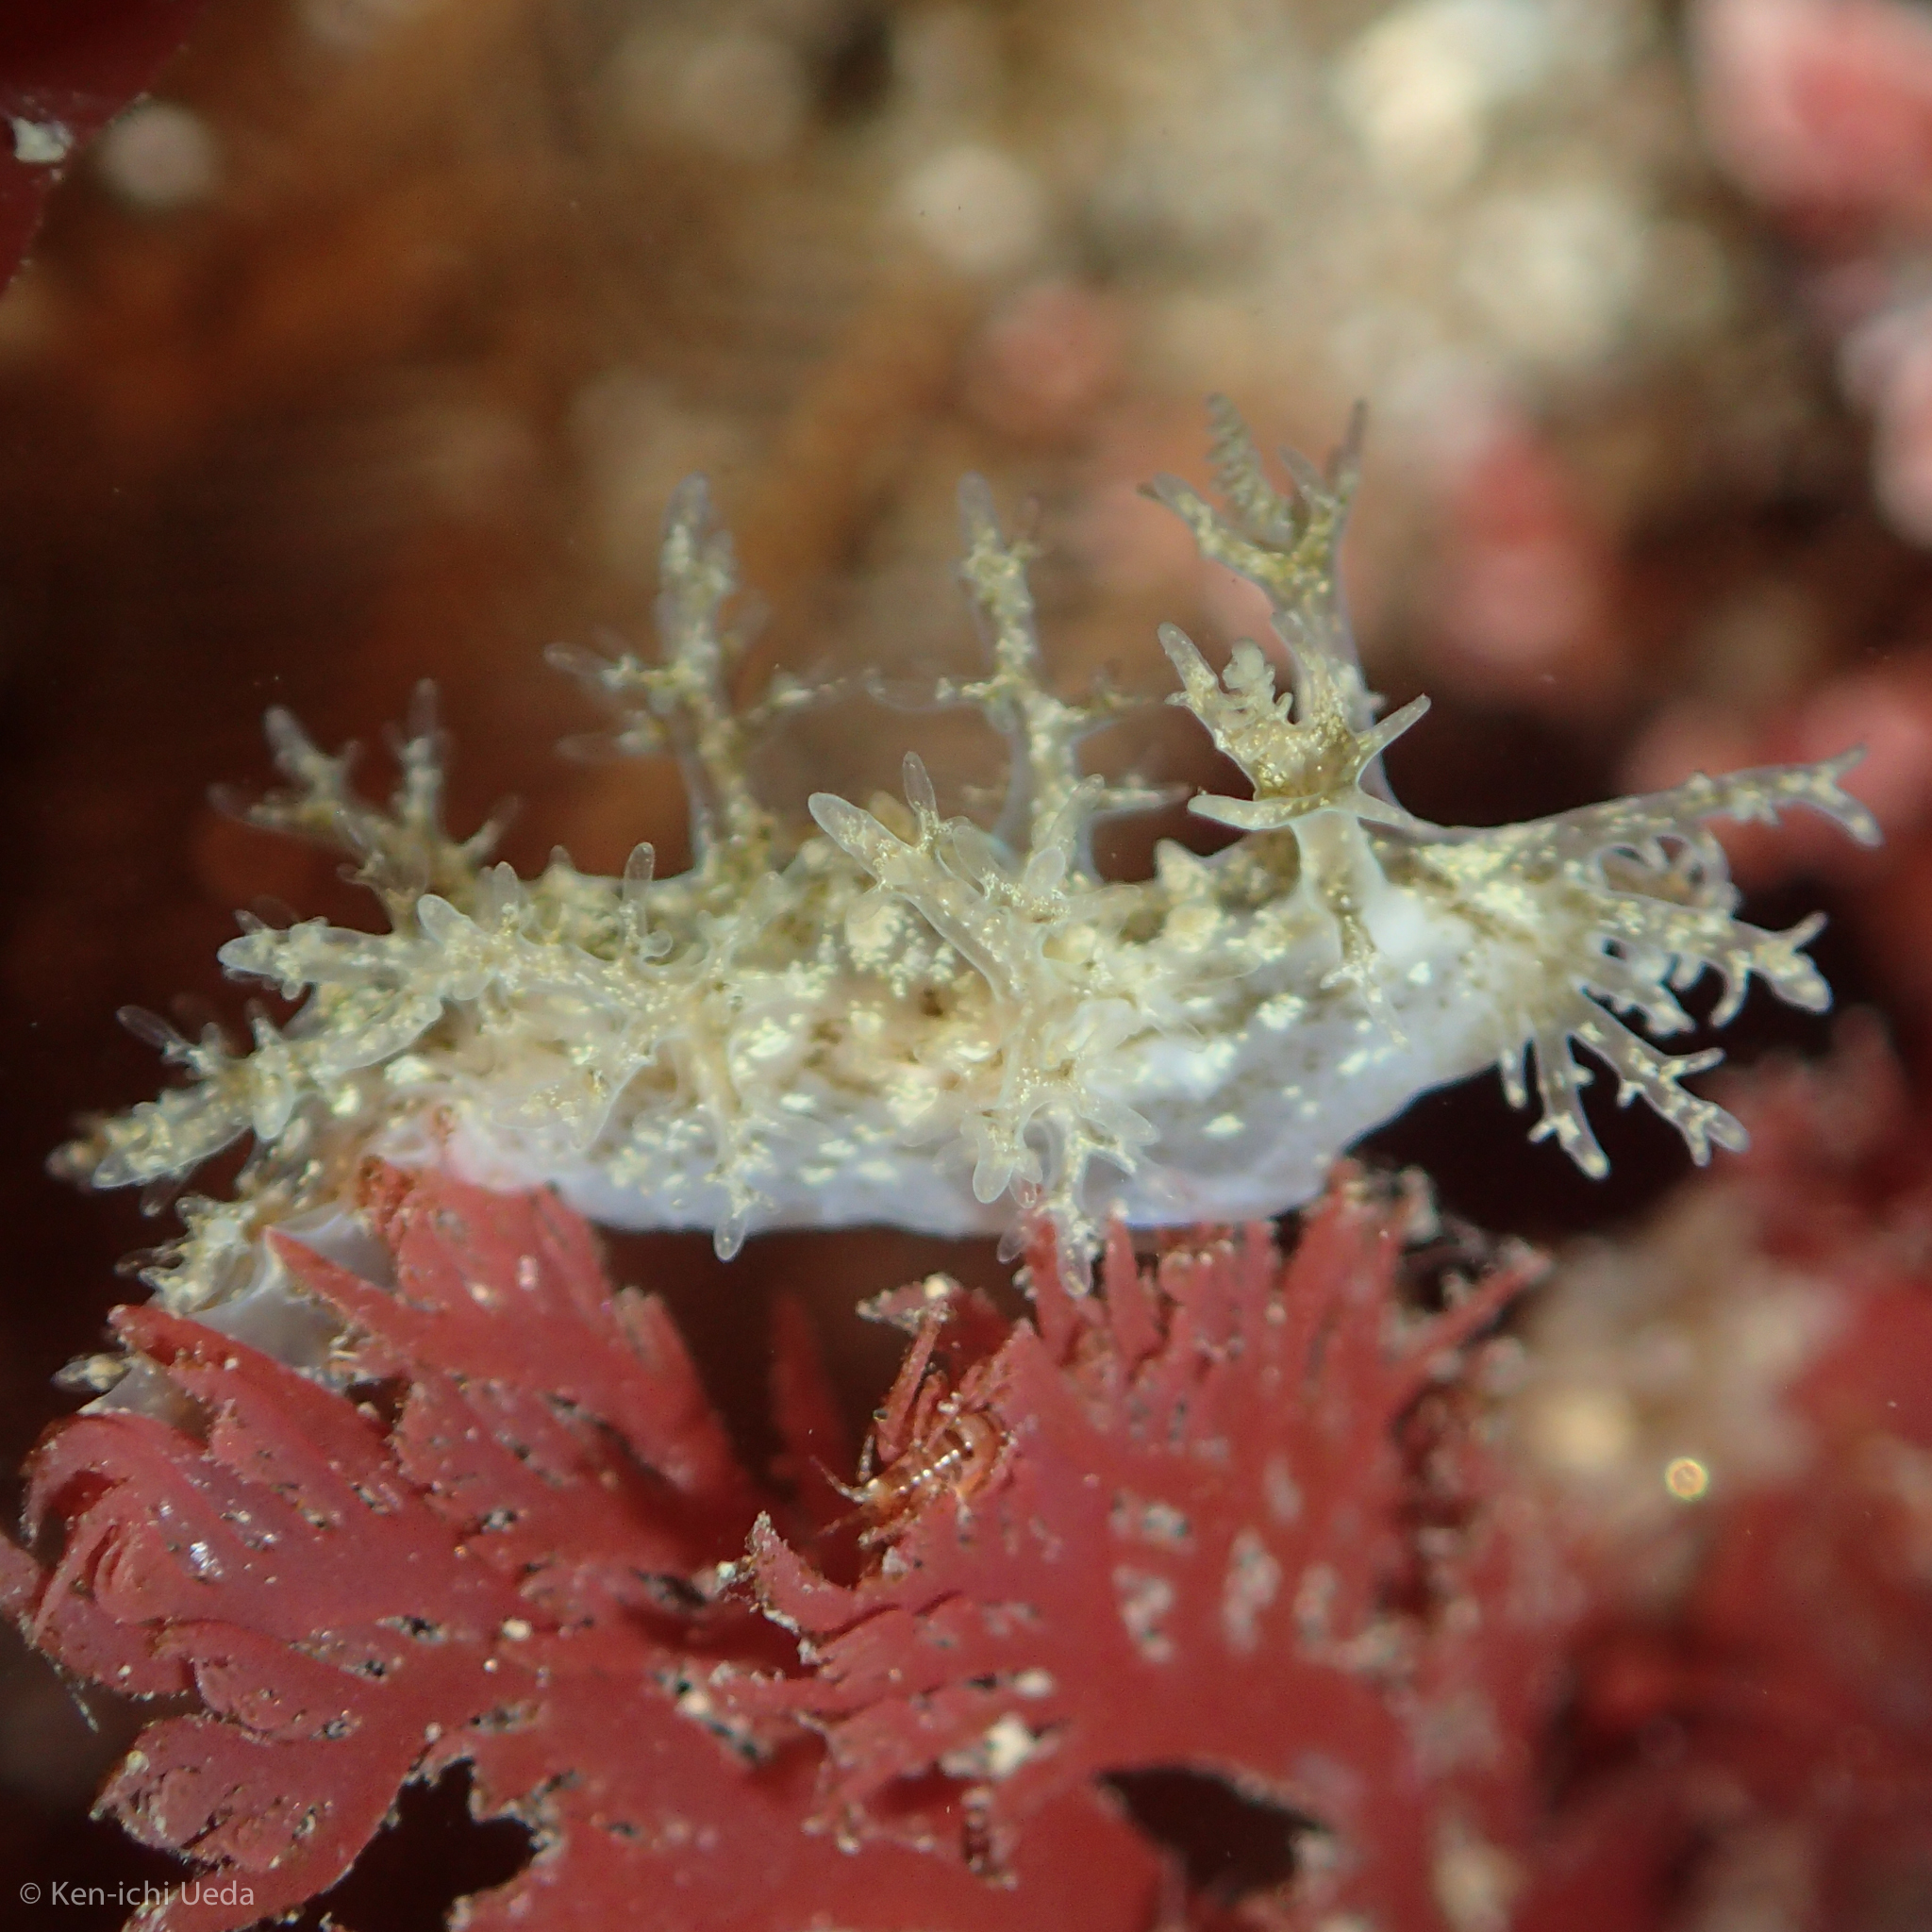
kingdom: Animalia
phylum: Mollusca
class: Gastropoda
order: Nudibranchia
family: Dendronotidae
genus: Dendronotus
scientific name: Dendronotus venustus
